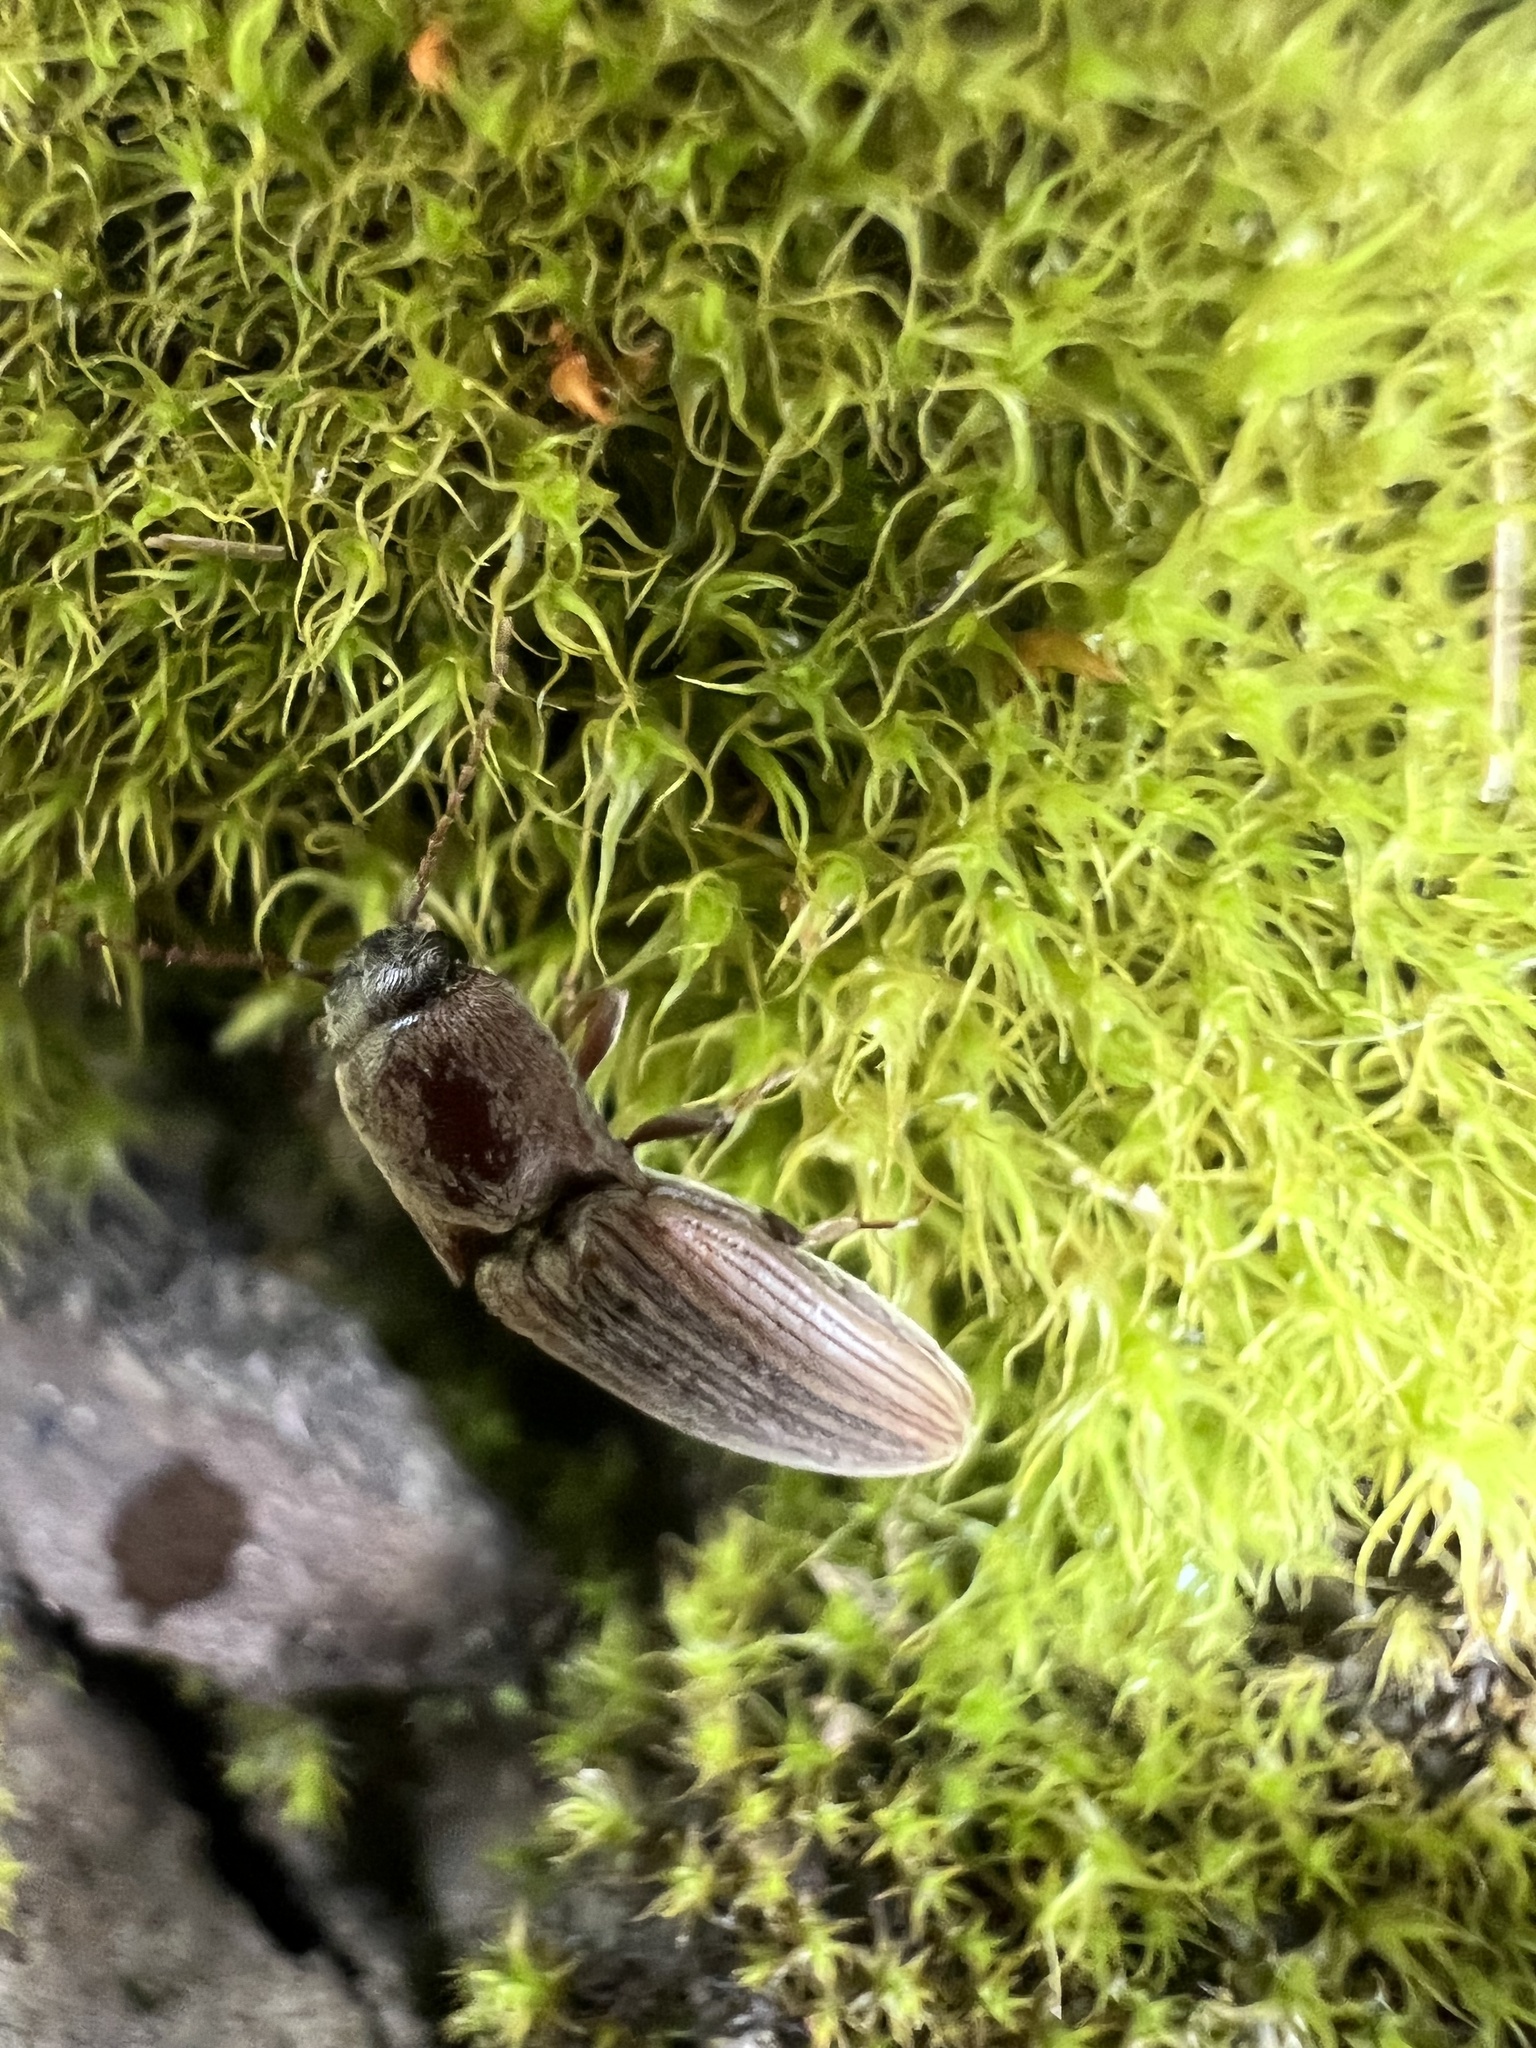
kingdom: Animalia
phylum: Arthropoda
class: Insecta
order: Coleoptera
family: Elateridae
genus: Agriotes
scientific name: Agriotes lineatus
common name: Lined click beetle
